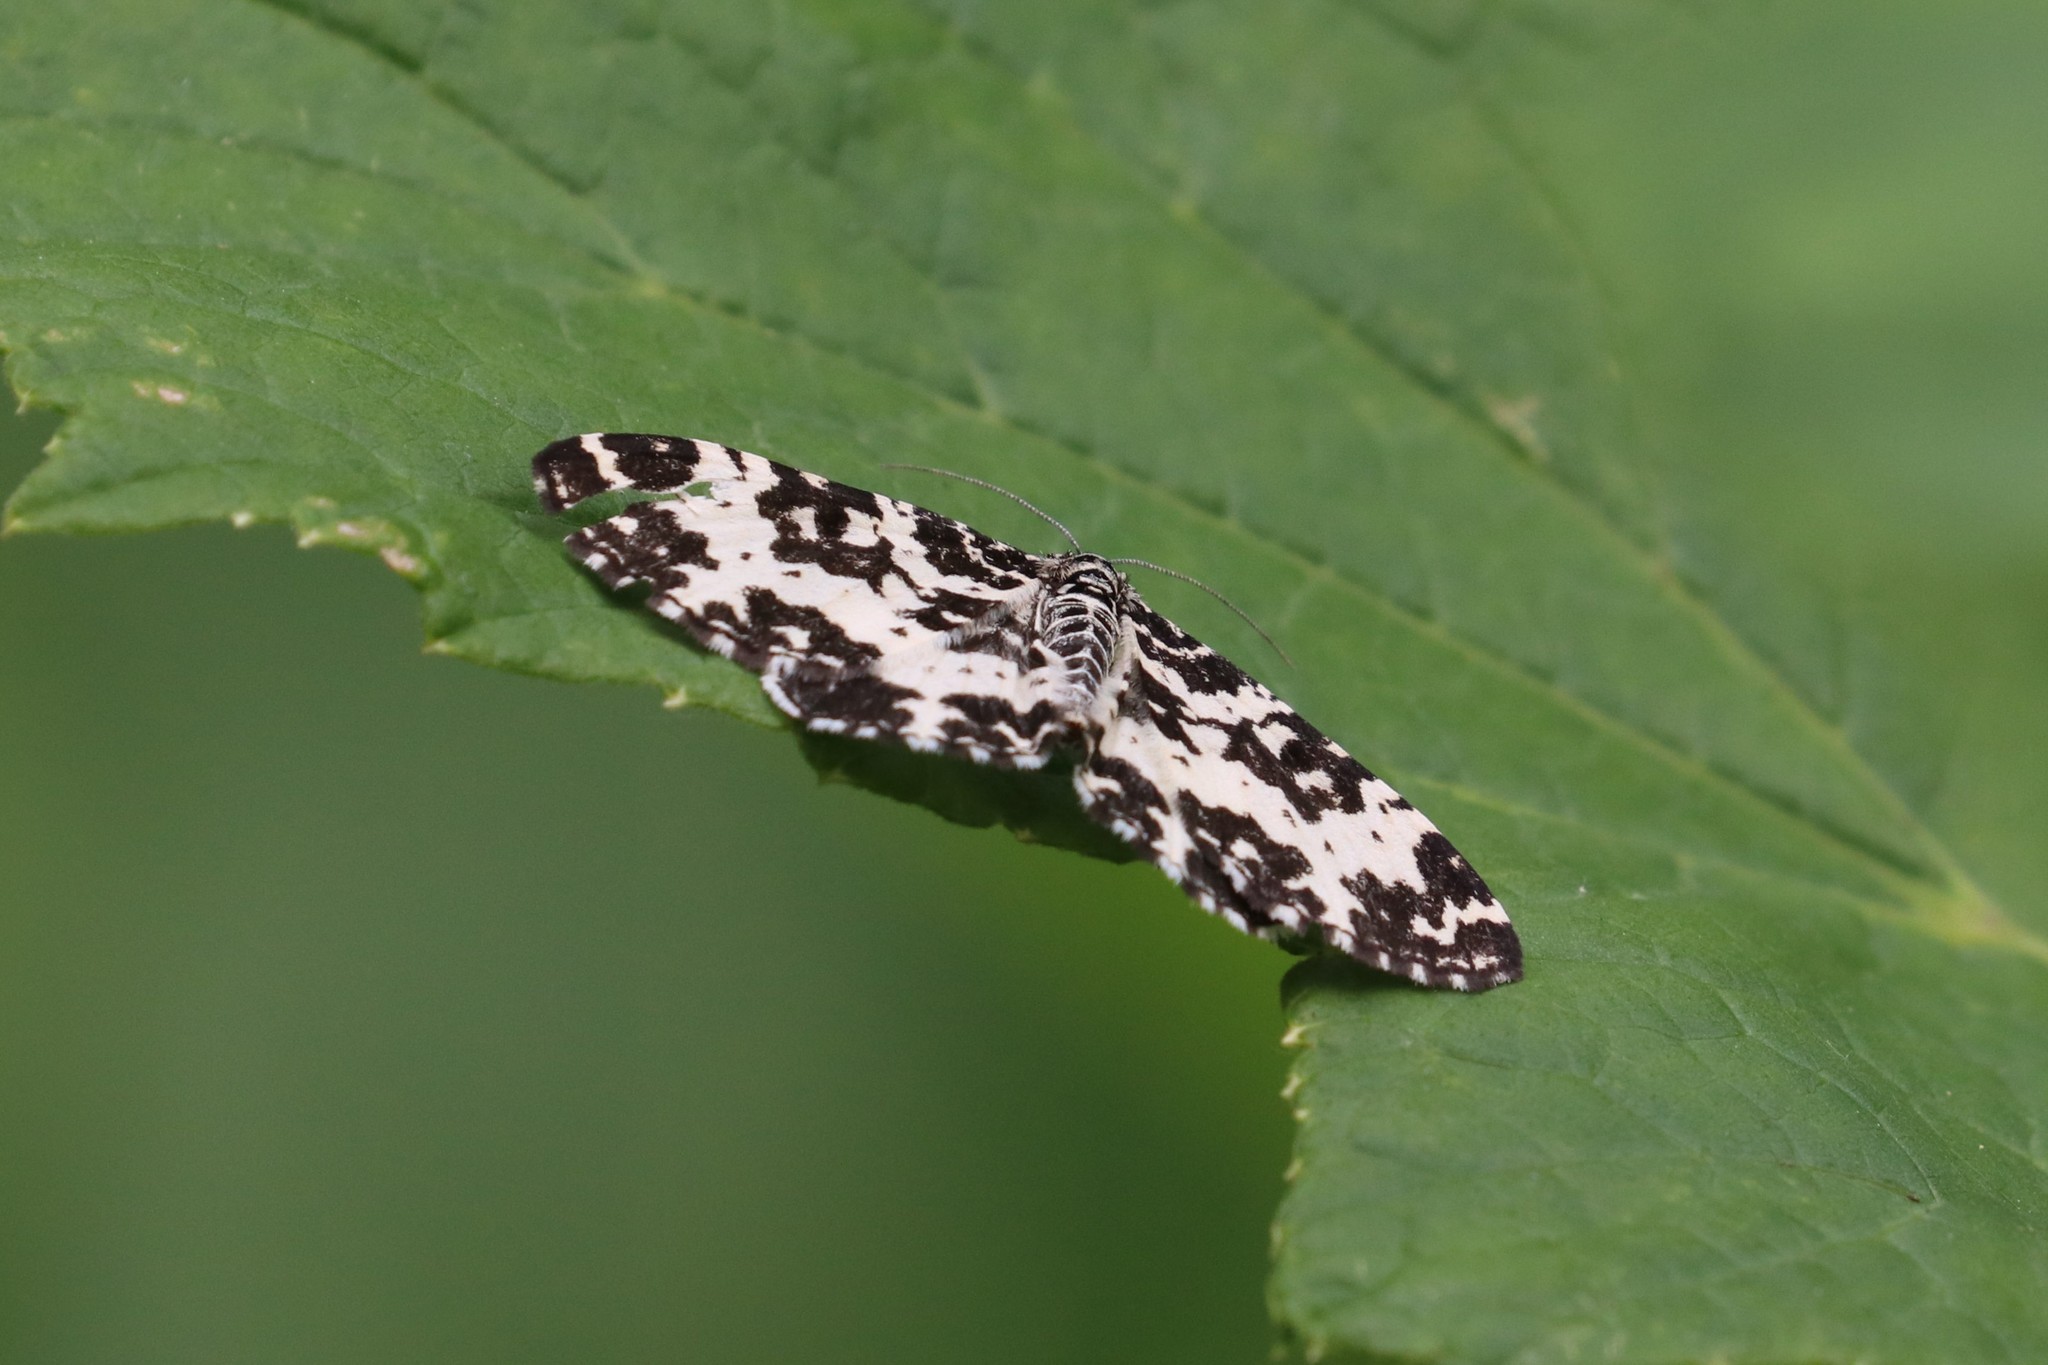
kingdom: Animalia
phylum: Arthropoda
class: Insecta
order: Lepidoptera
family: Geometridae
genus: Rheumaptera
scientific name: Rheumaptera hastata
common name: Argent & sable
